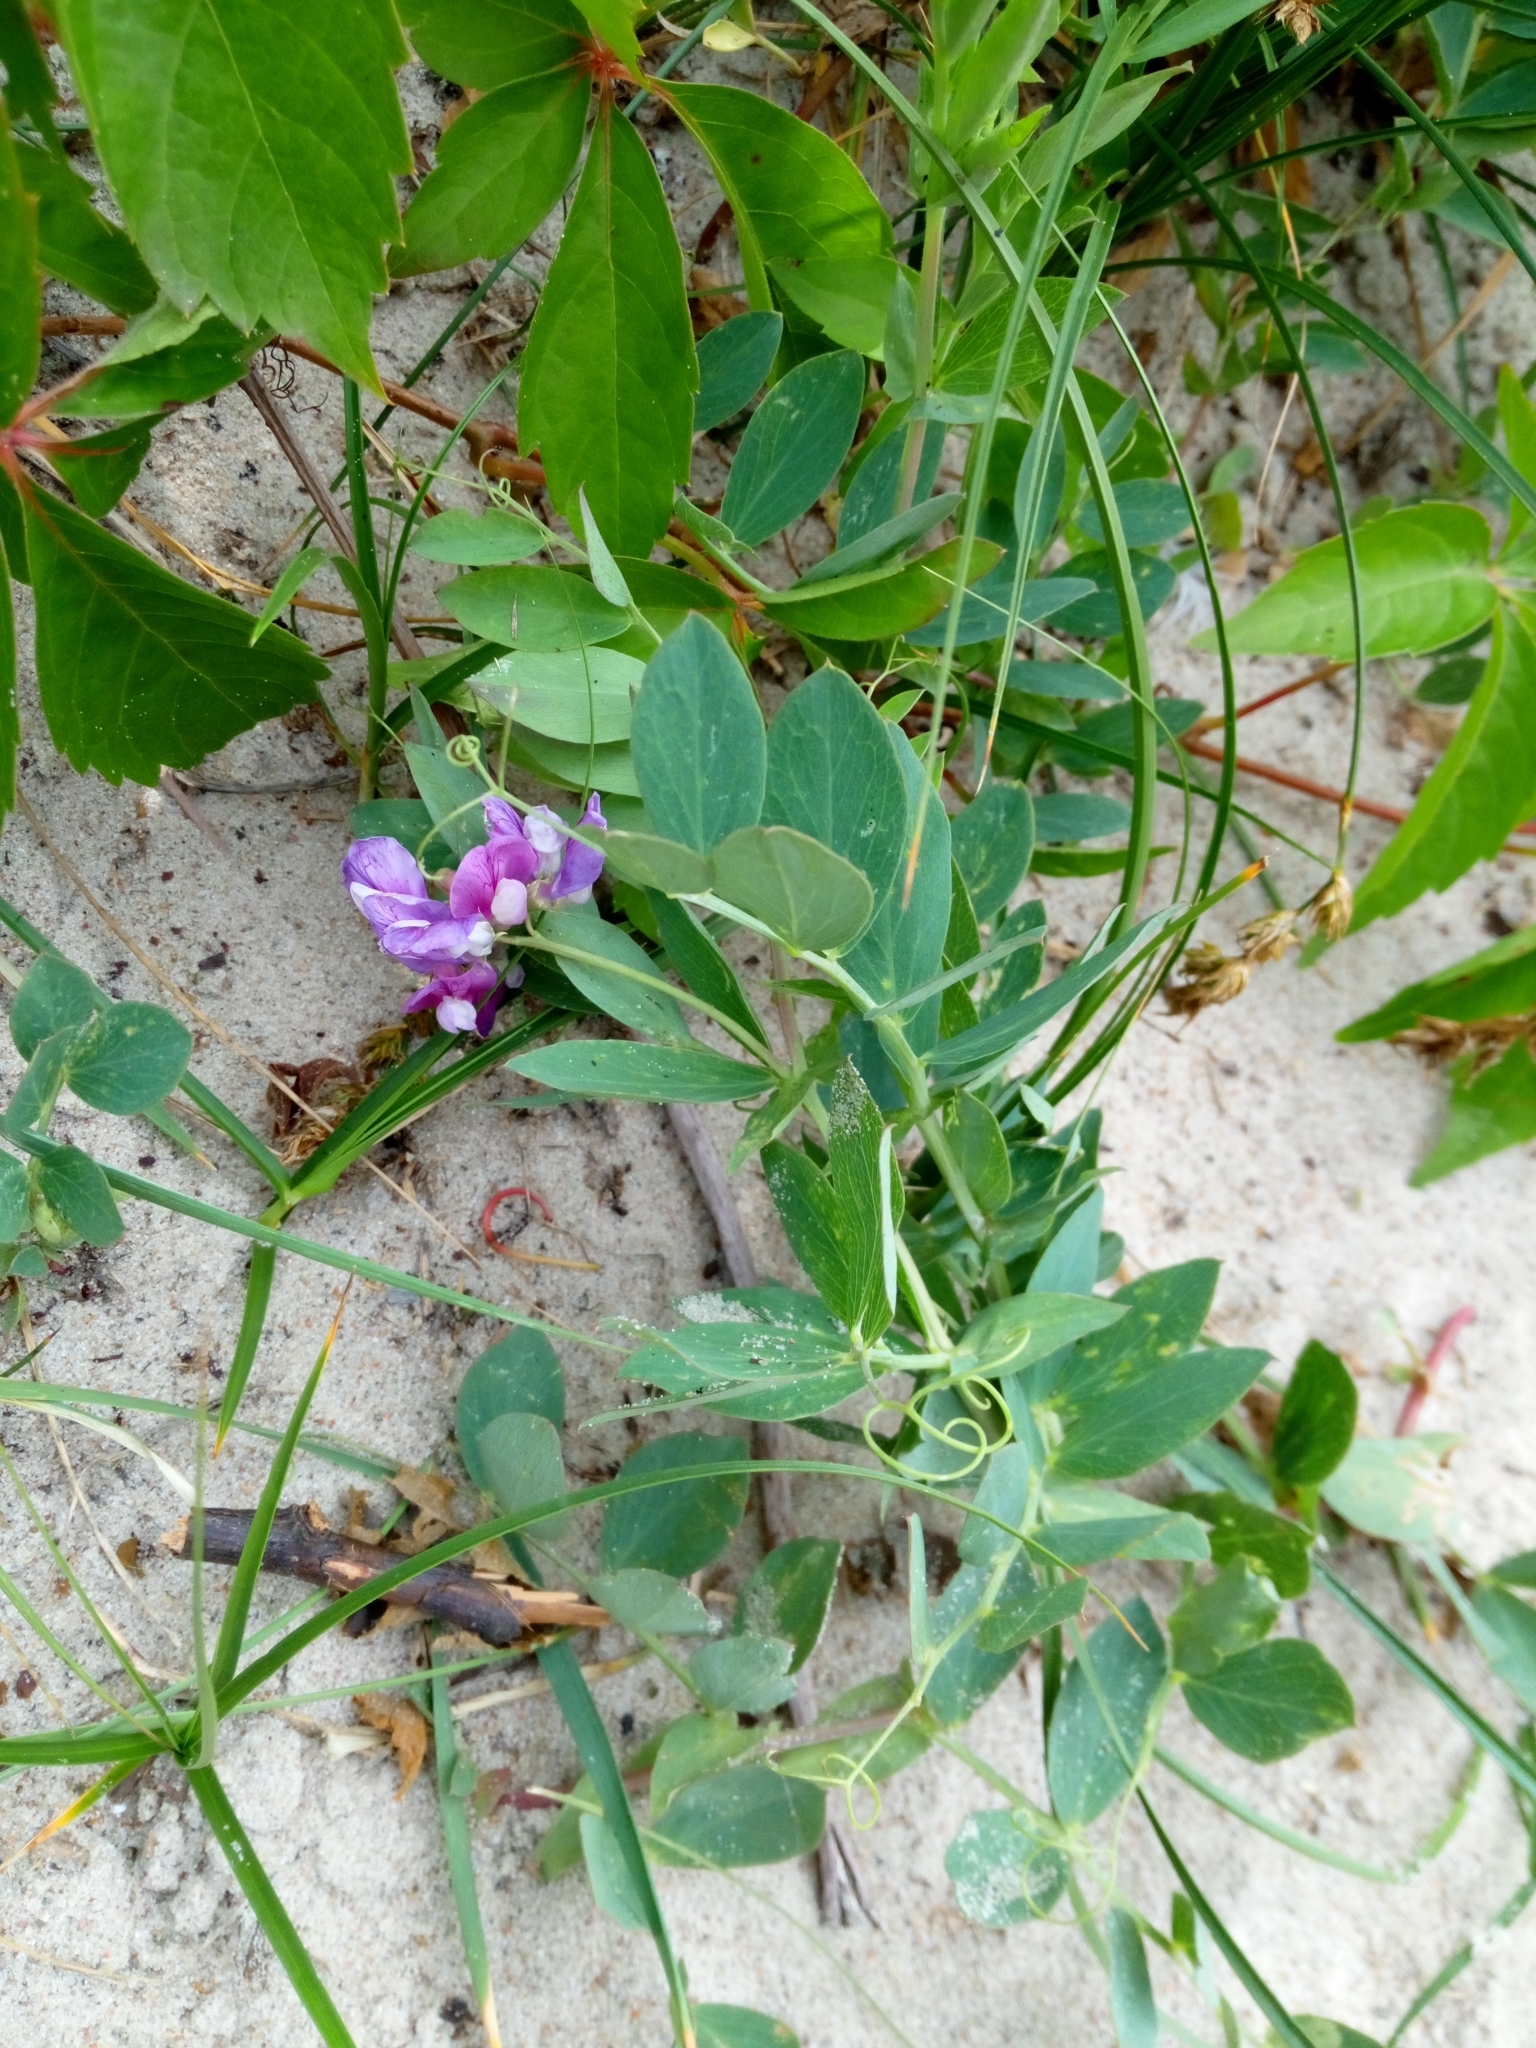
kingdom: Plantae
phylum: Tracheophyta
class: Magnoliopsida
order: Fabales
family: Fabaceae
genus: Lathyrus
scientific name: Lathyrus japonicus
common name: Sea pea
